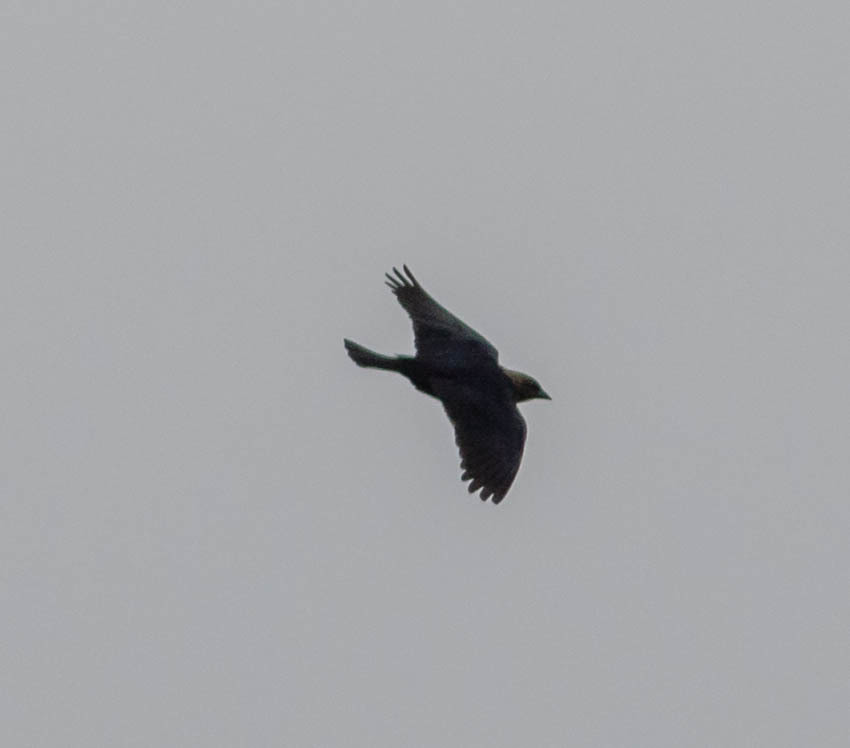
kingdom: Animalia
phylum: Chordata
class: Aves
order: Passeriformes
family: Icteridae
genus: Molothrus
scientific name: Molothrus ater
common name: Brown-headed cowbird
